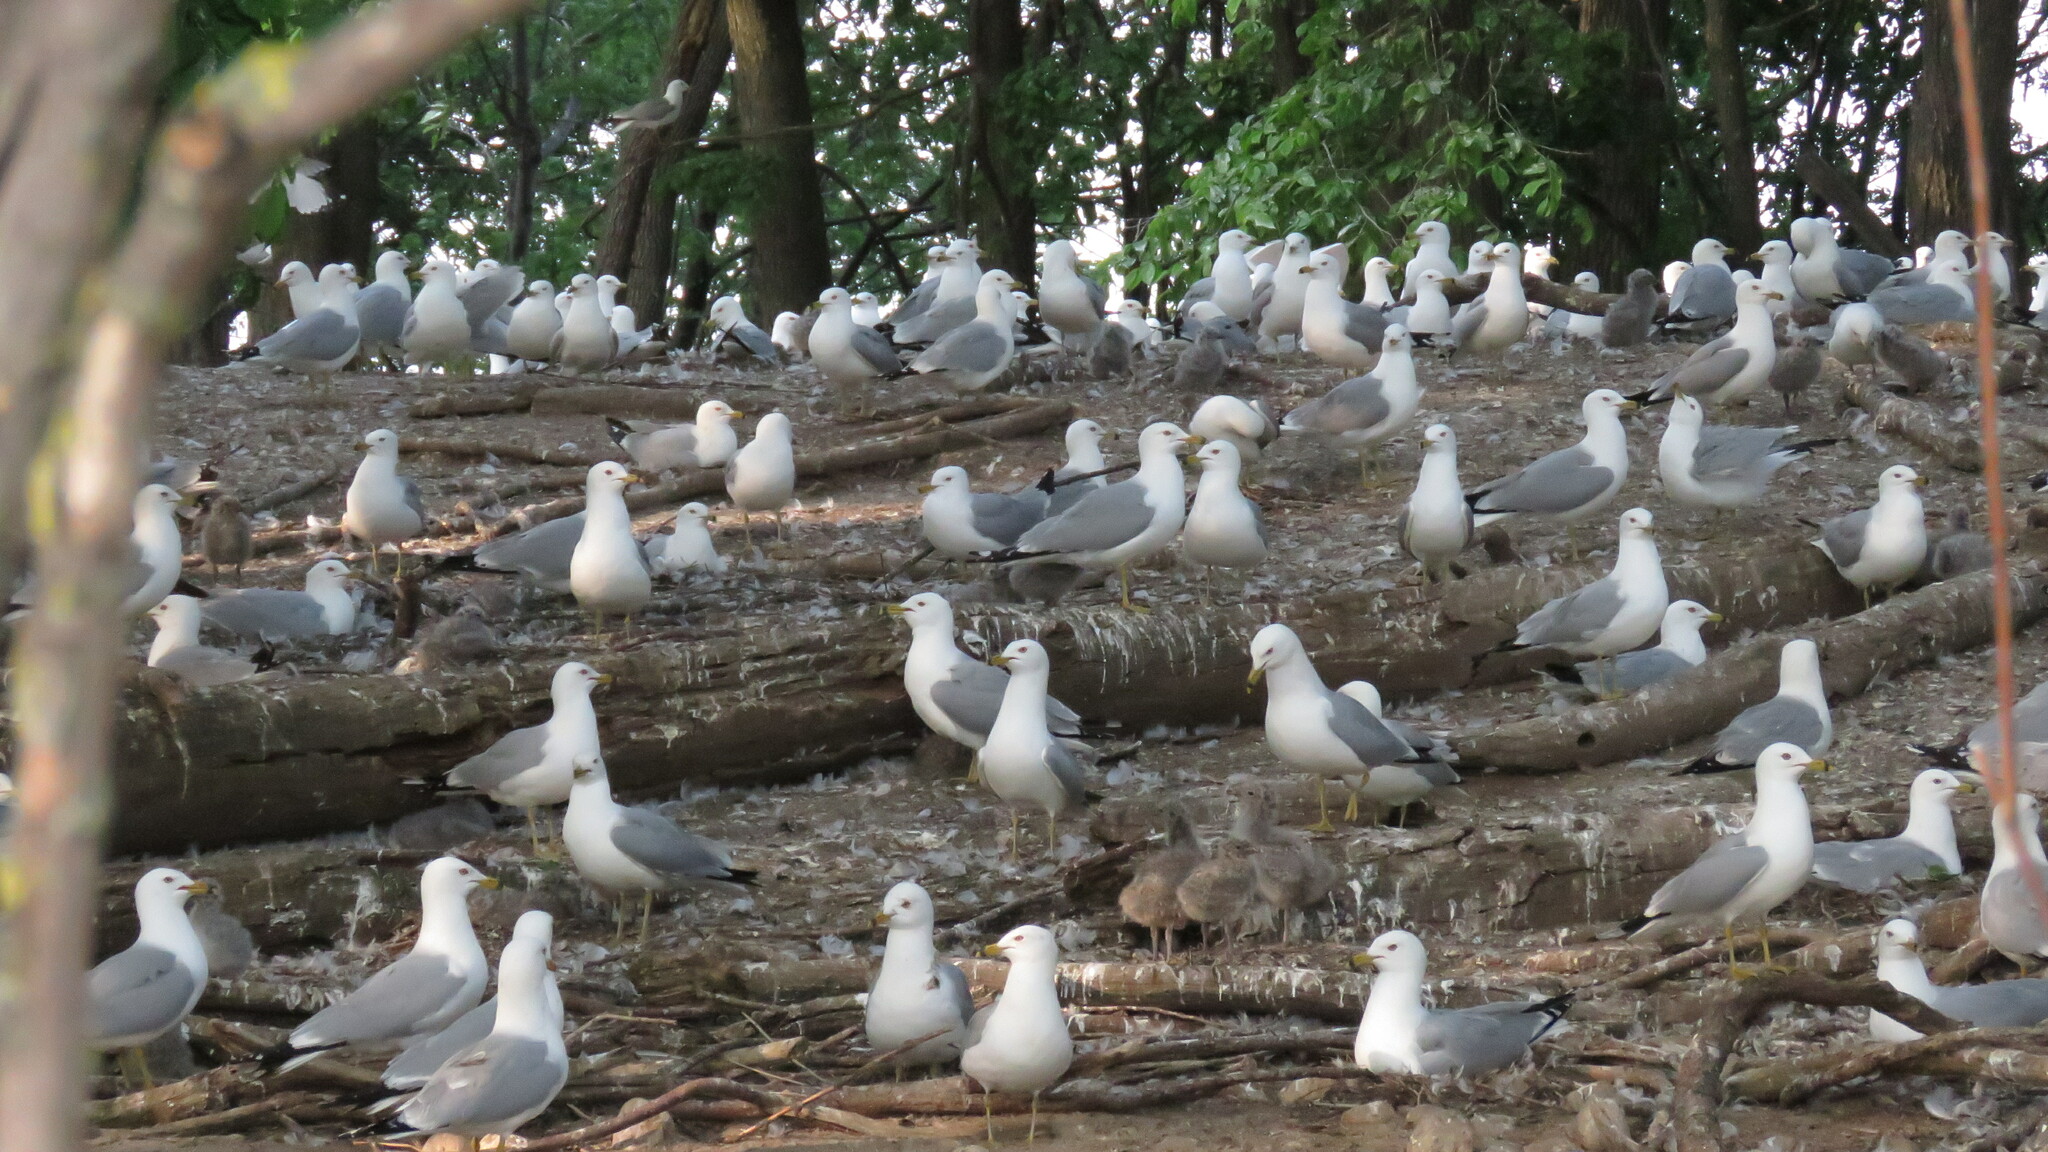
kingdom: Animalia
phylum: Chordata
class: Aves
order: Charadriiformes
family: Laridae
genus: Larus
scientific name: Larus delawarensis
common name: Ring-billed gull
